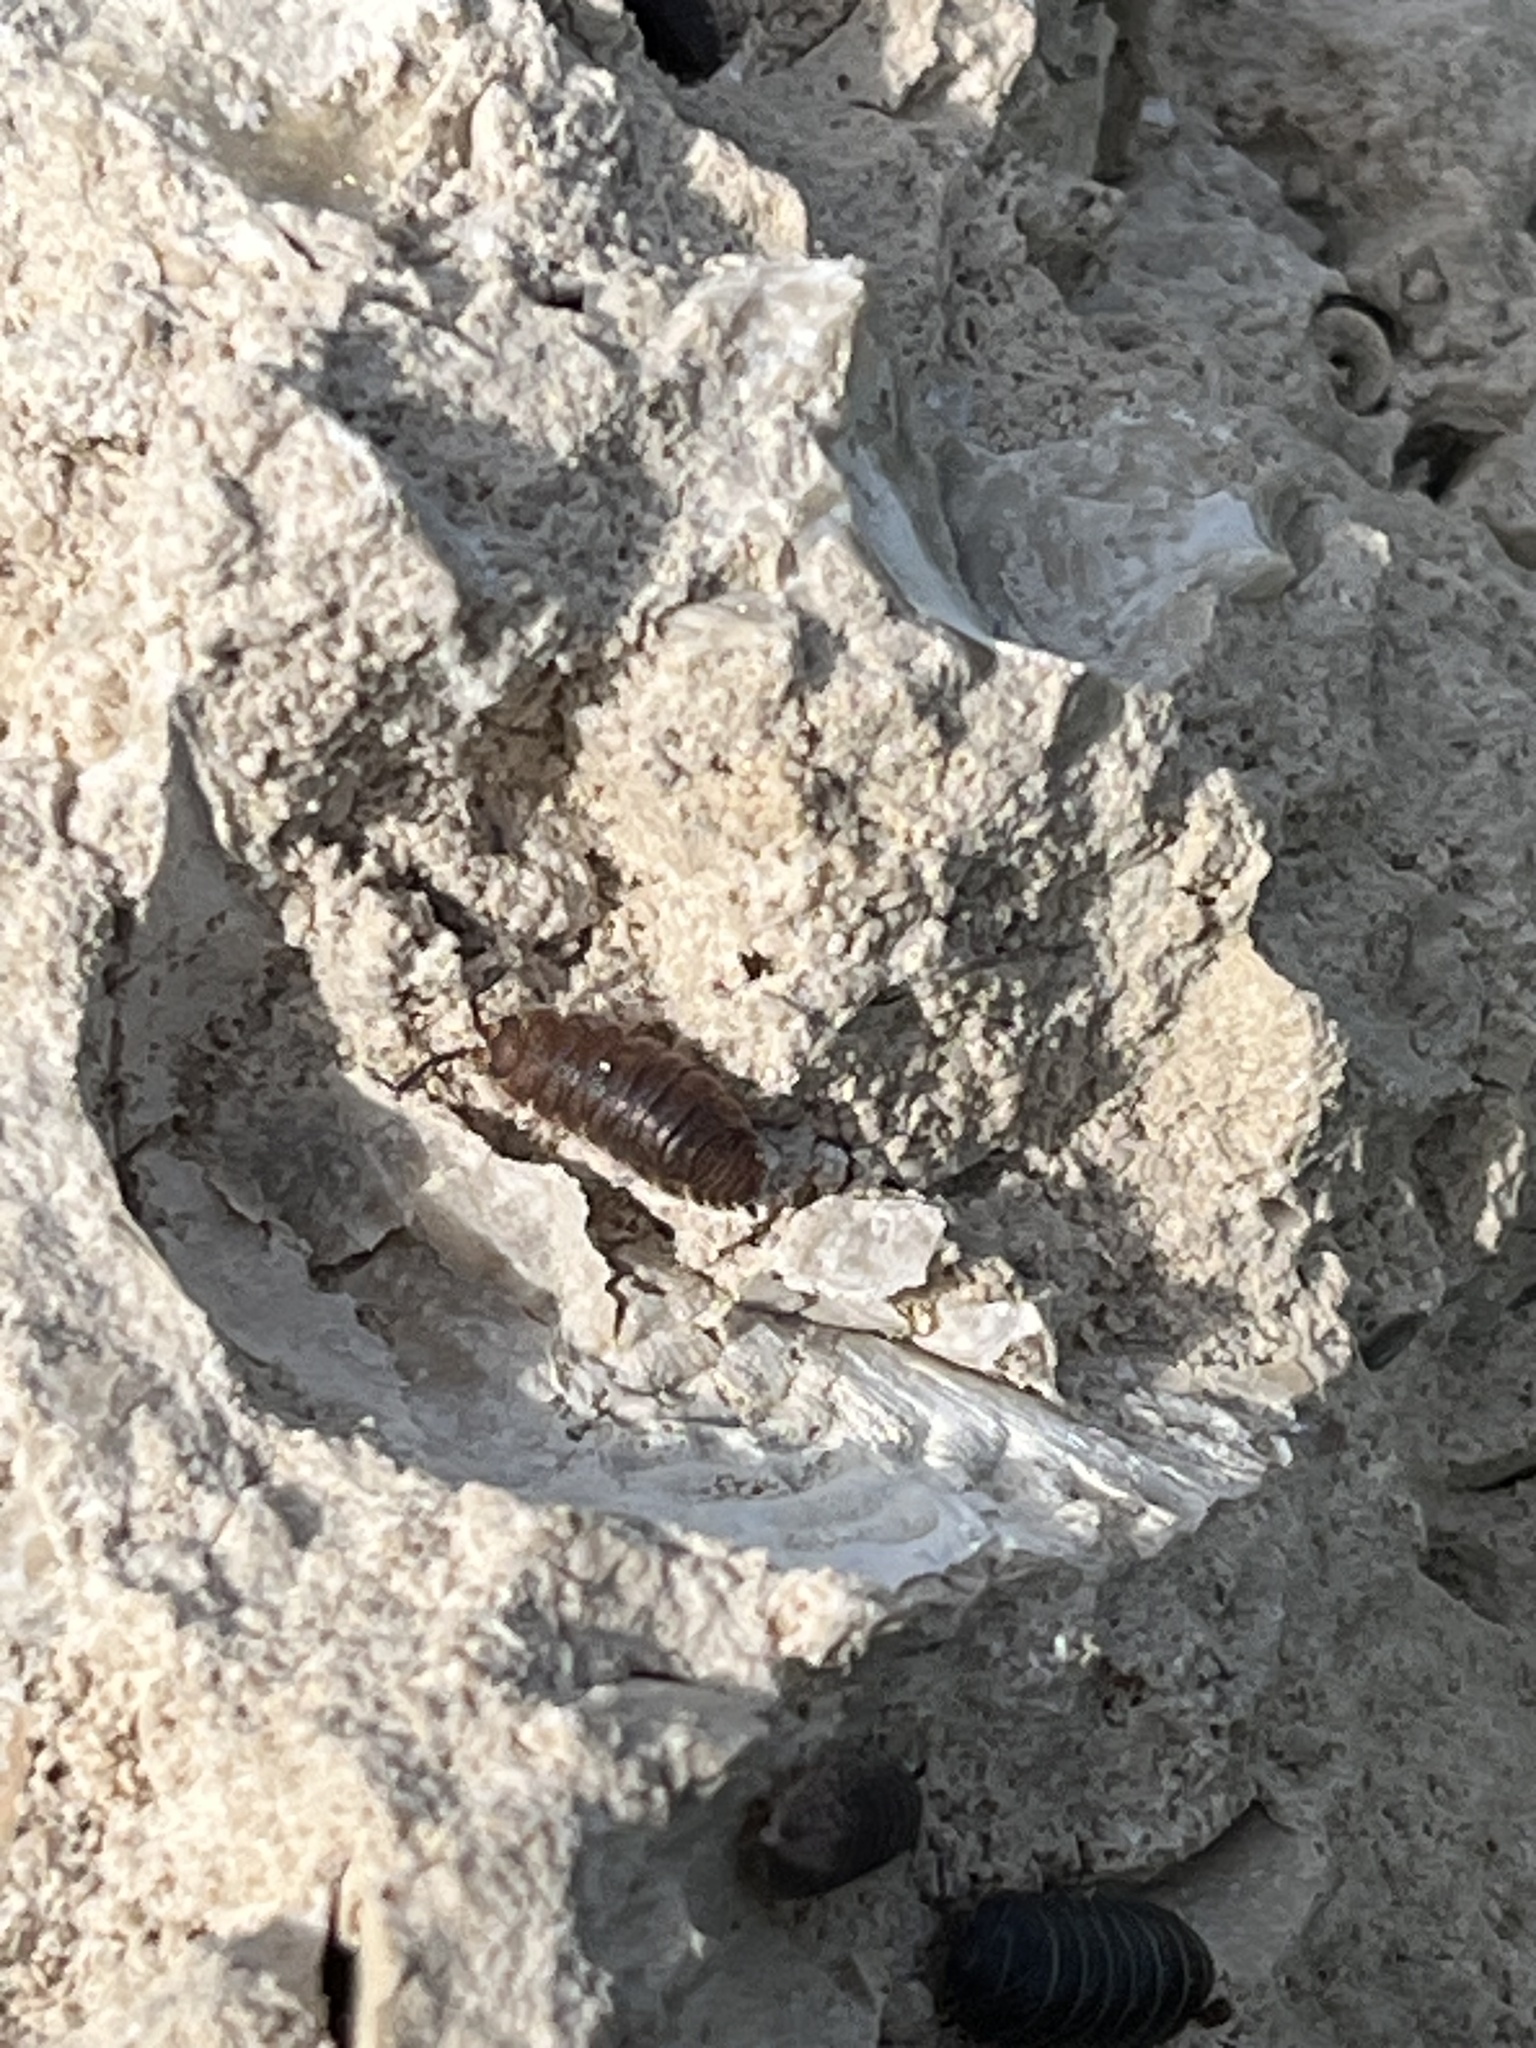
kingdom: Animalia
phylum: Arthropoda
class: Malacostraca
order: Isopoda
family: Porcellionidae
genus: Porcellio
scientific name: Porcellio scaber
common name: Common rough woodlouse
